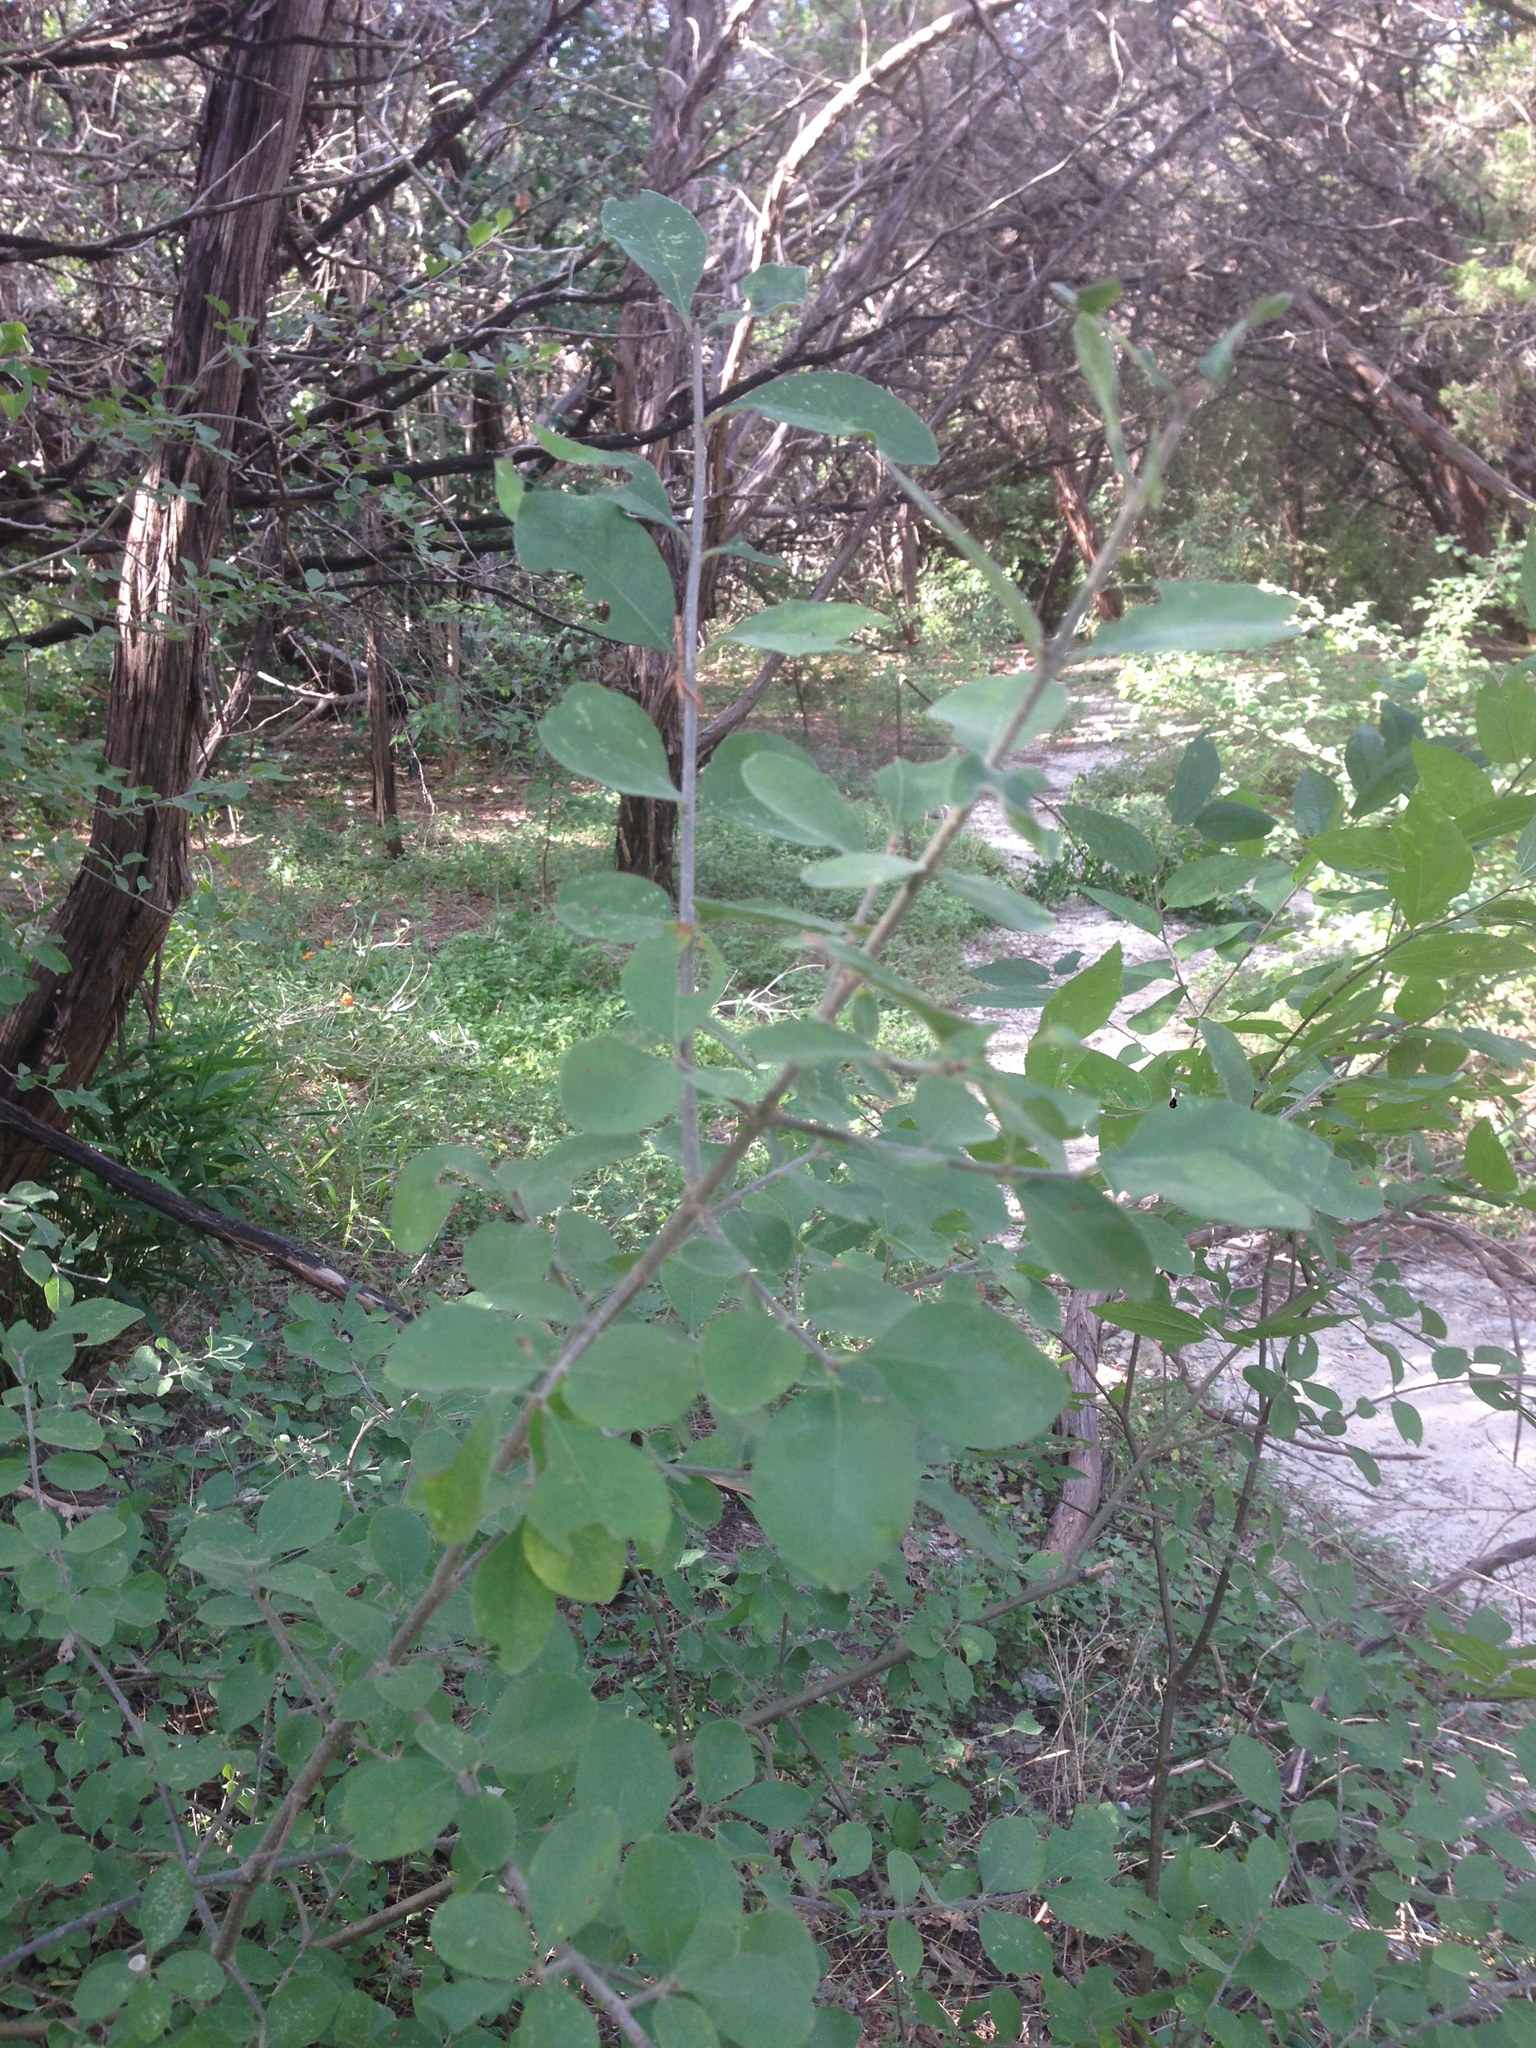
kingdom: Plantae
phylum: Tracheophyta
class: Magnoliopsida
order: Lamiales
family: Oleaceae
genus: Forestiera
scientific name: Forestiera pubescens
